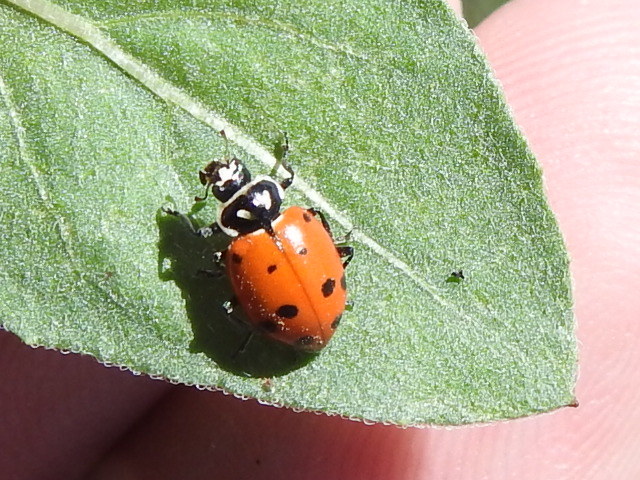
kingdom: Animalia
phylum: Arthropoda
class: Insecta
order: Coleoptera
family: Coccinellidae
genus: Hippodamia
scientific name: Hippodamia convergens
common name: Convergent lady beetle
